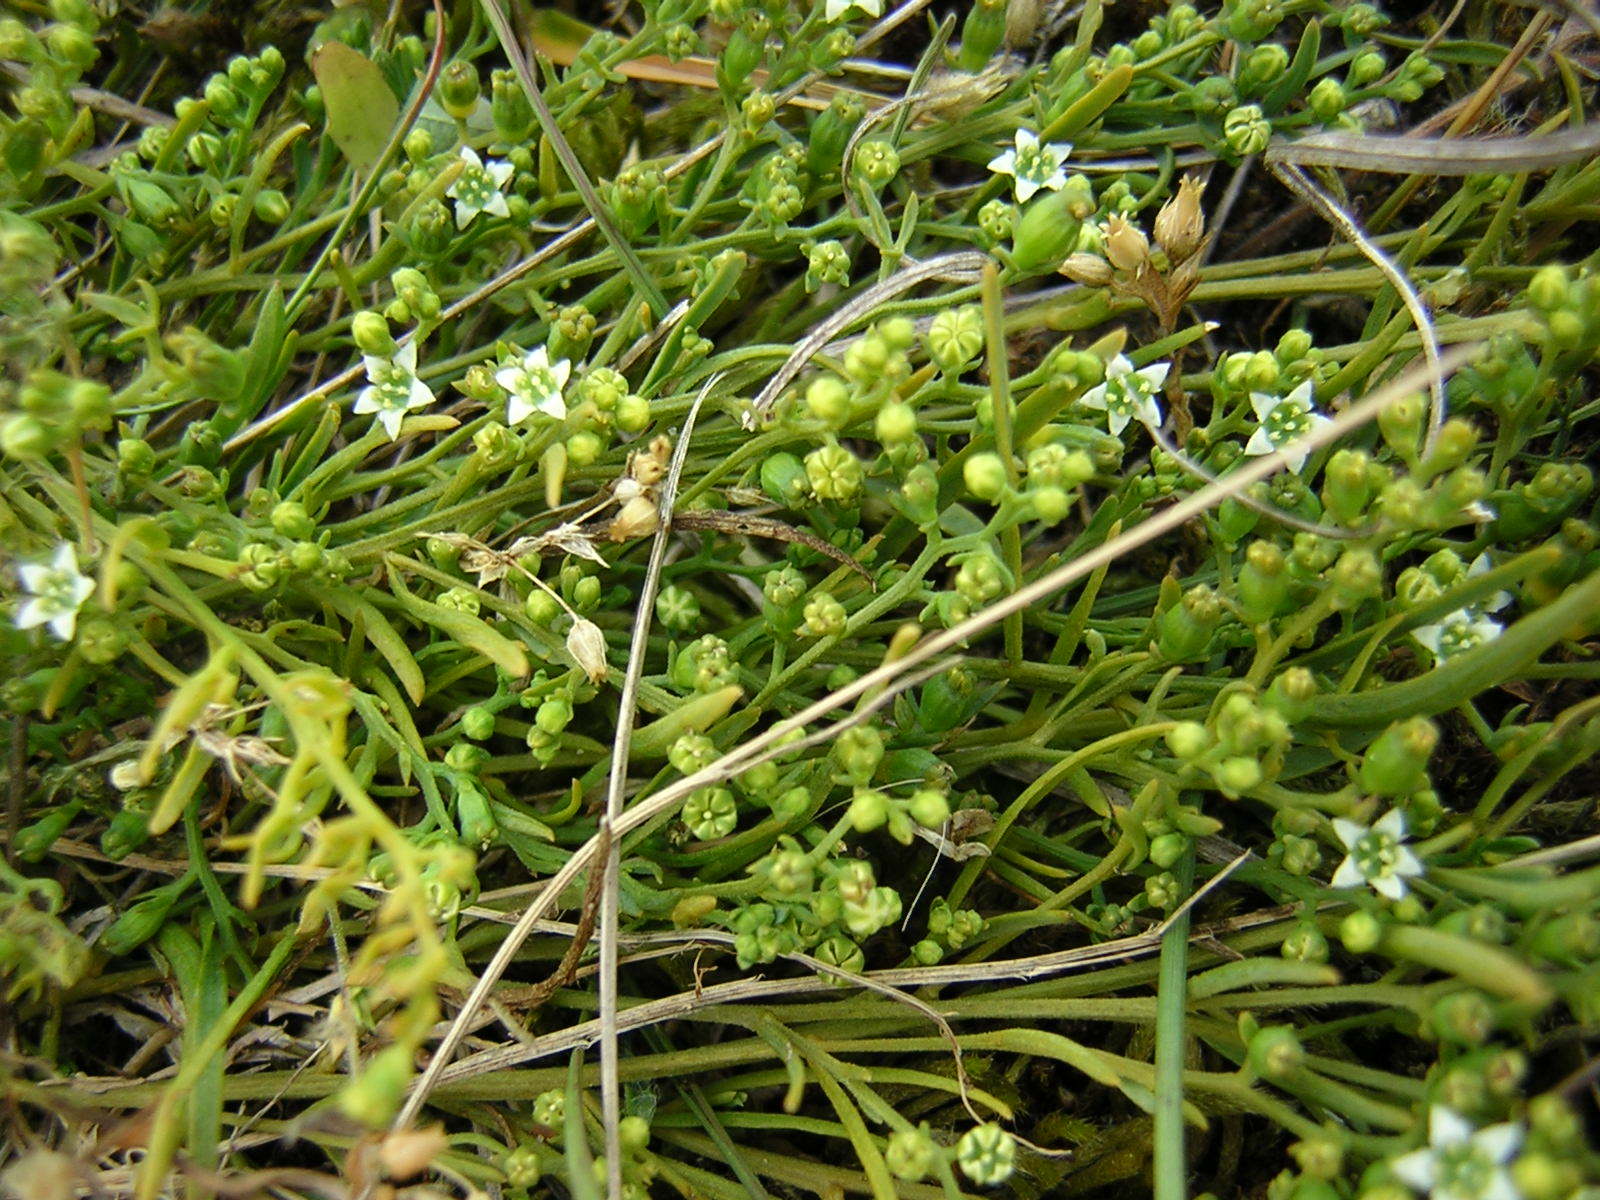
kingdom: Plantae
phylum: Tracheophyta
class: Magnoliopsida
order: Santalales
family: Thesiaceae
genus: Thesium
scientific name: Thesium humifusum
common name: Bastard-toadflax
